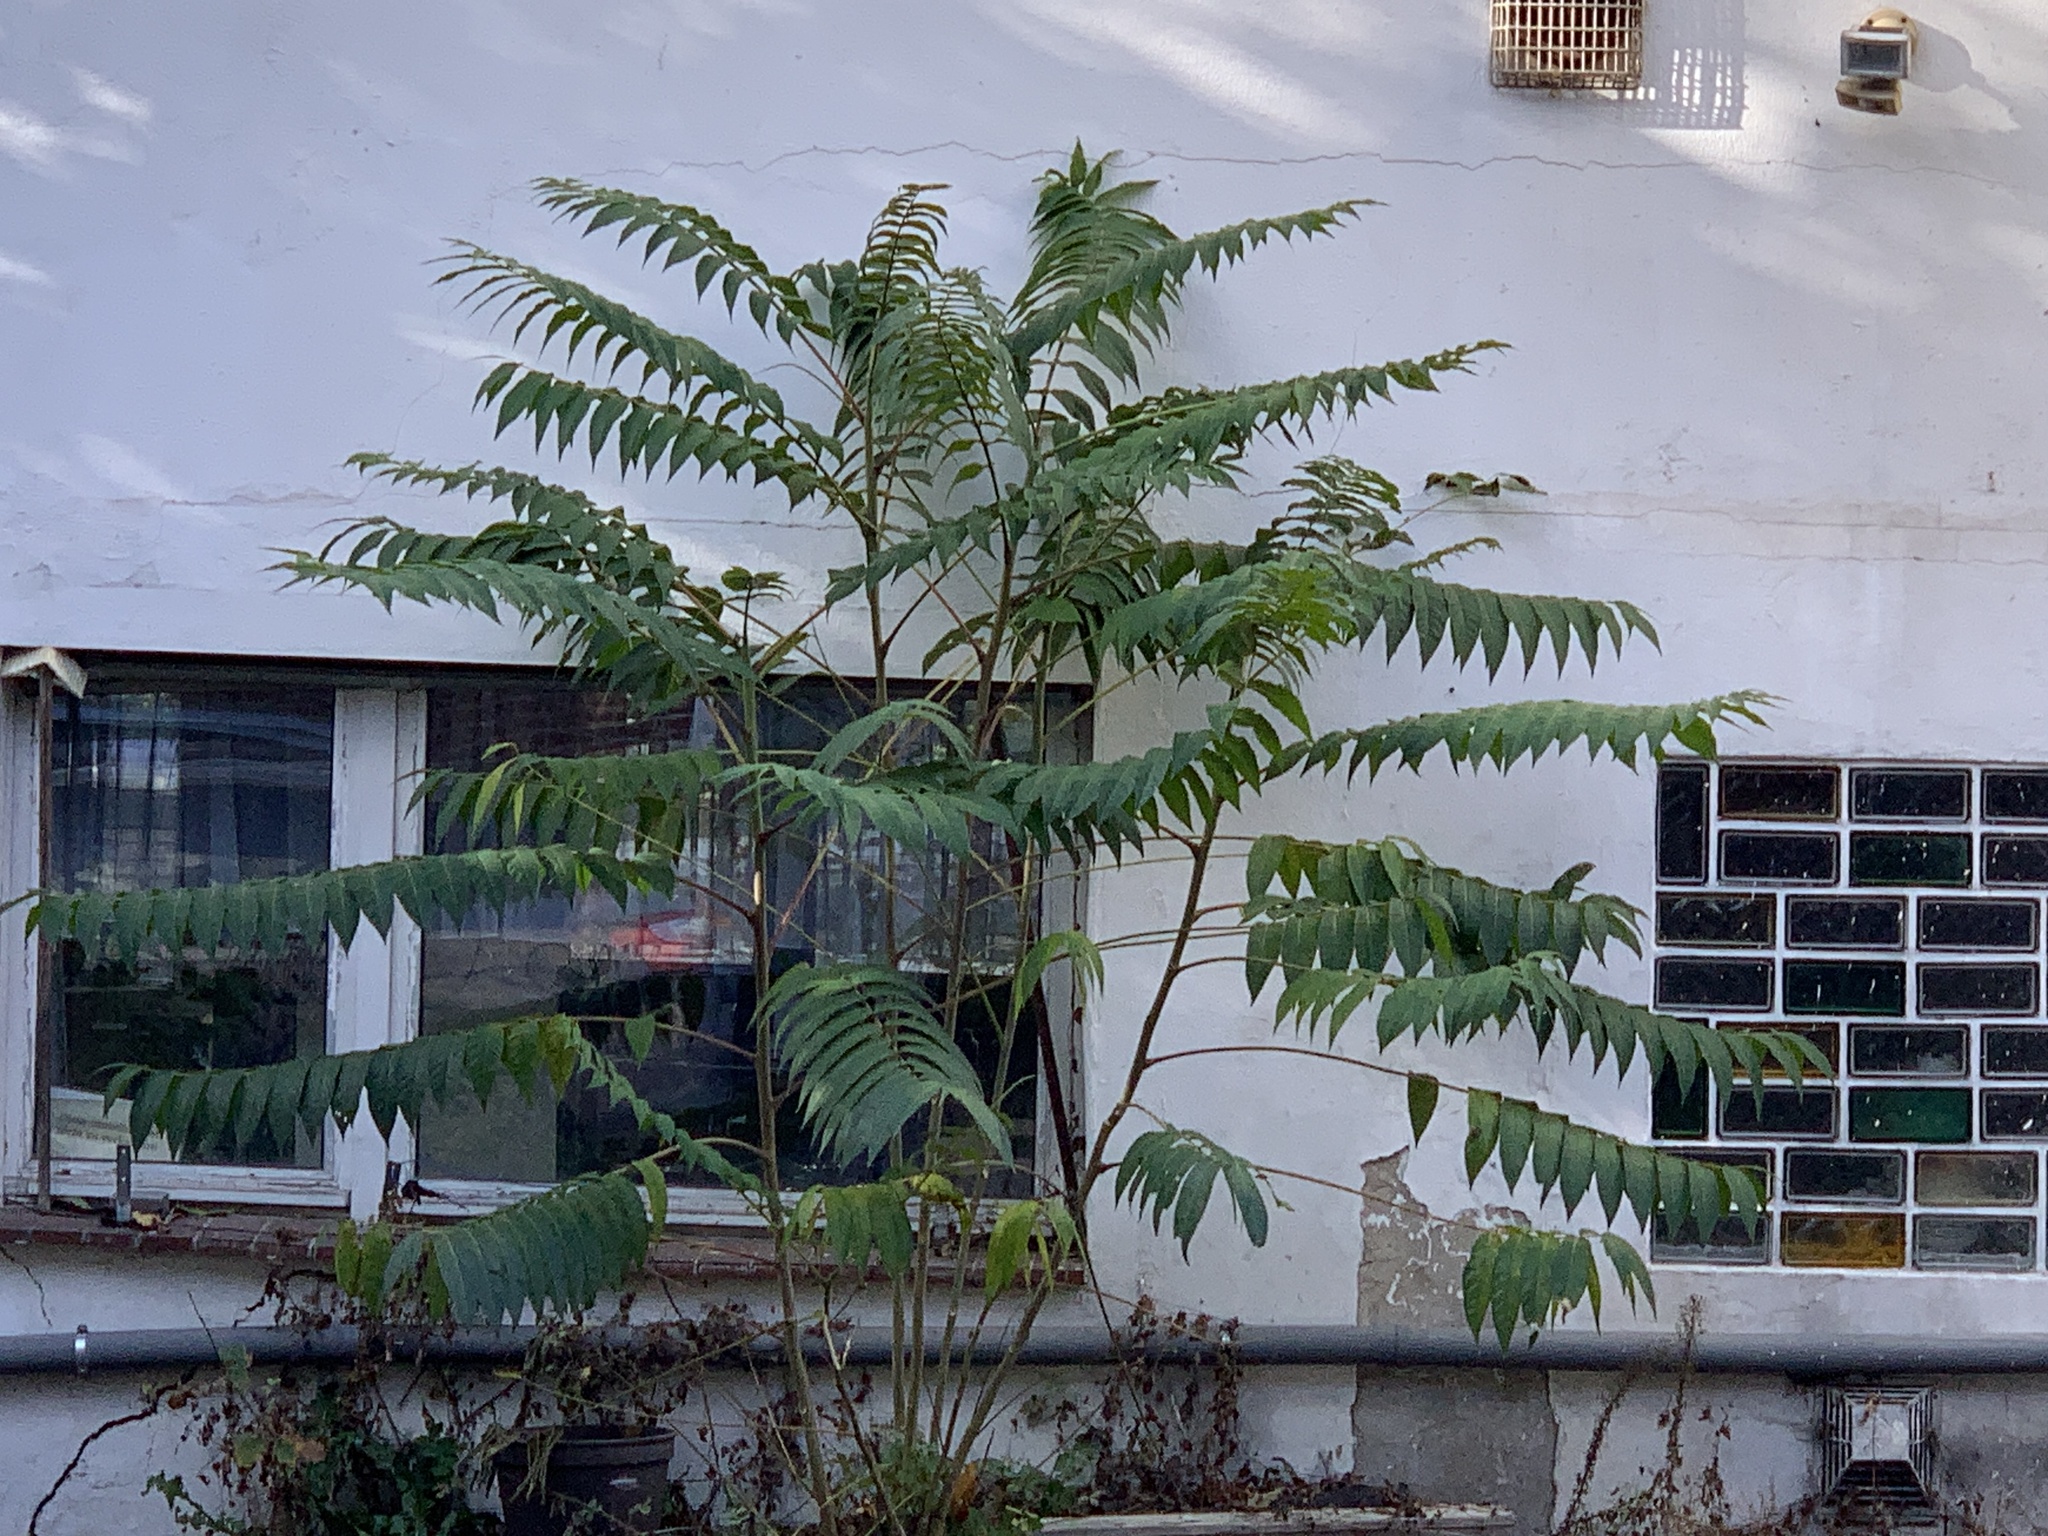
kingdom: Plantae
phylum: Tracheophyta
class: Magnoliopsida
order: Sapindales
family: Simaroubaceae
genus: Ailanthus
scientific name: Ailanthus altissima
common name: Tree-of-heaven
